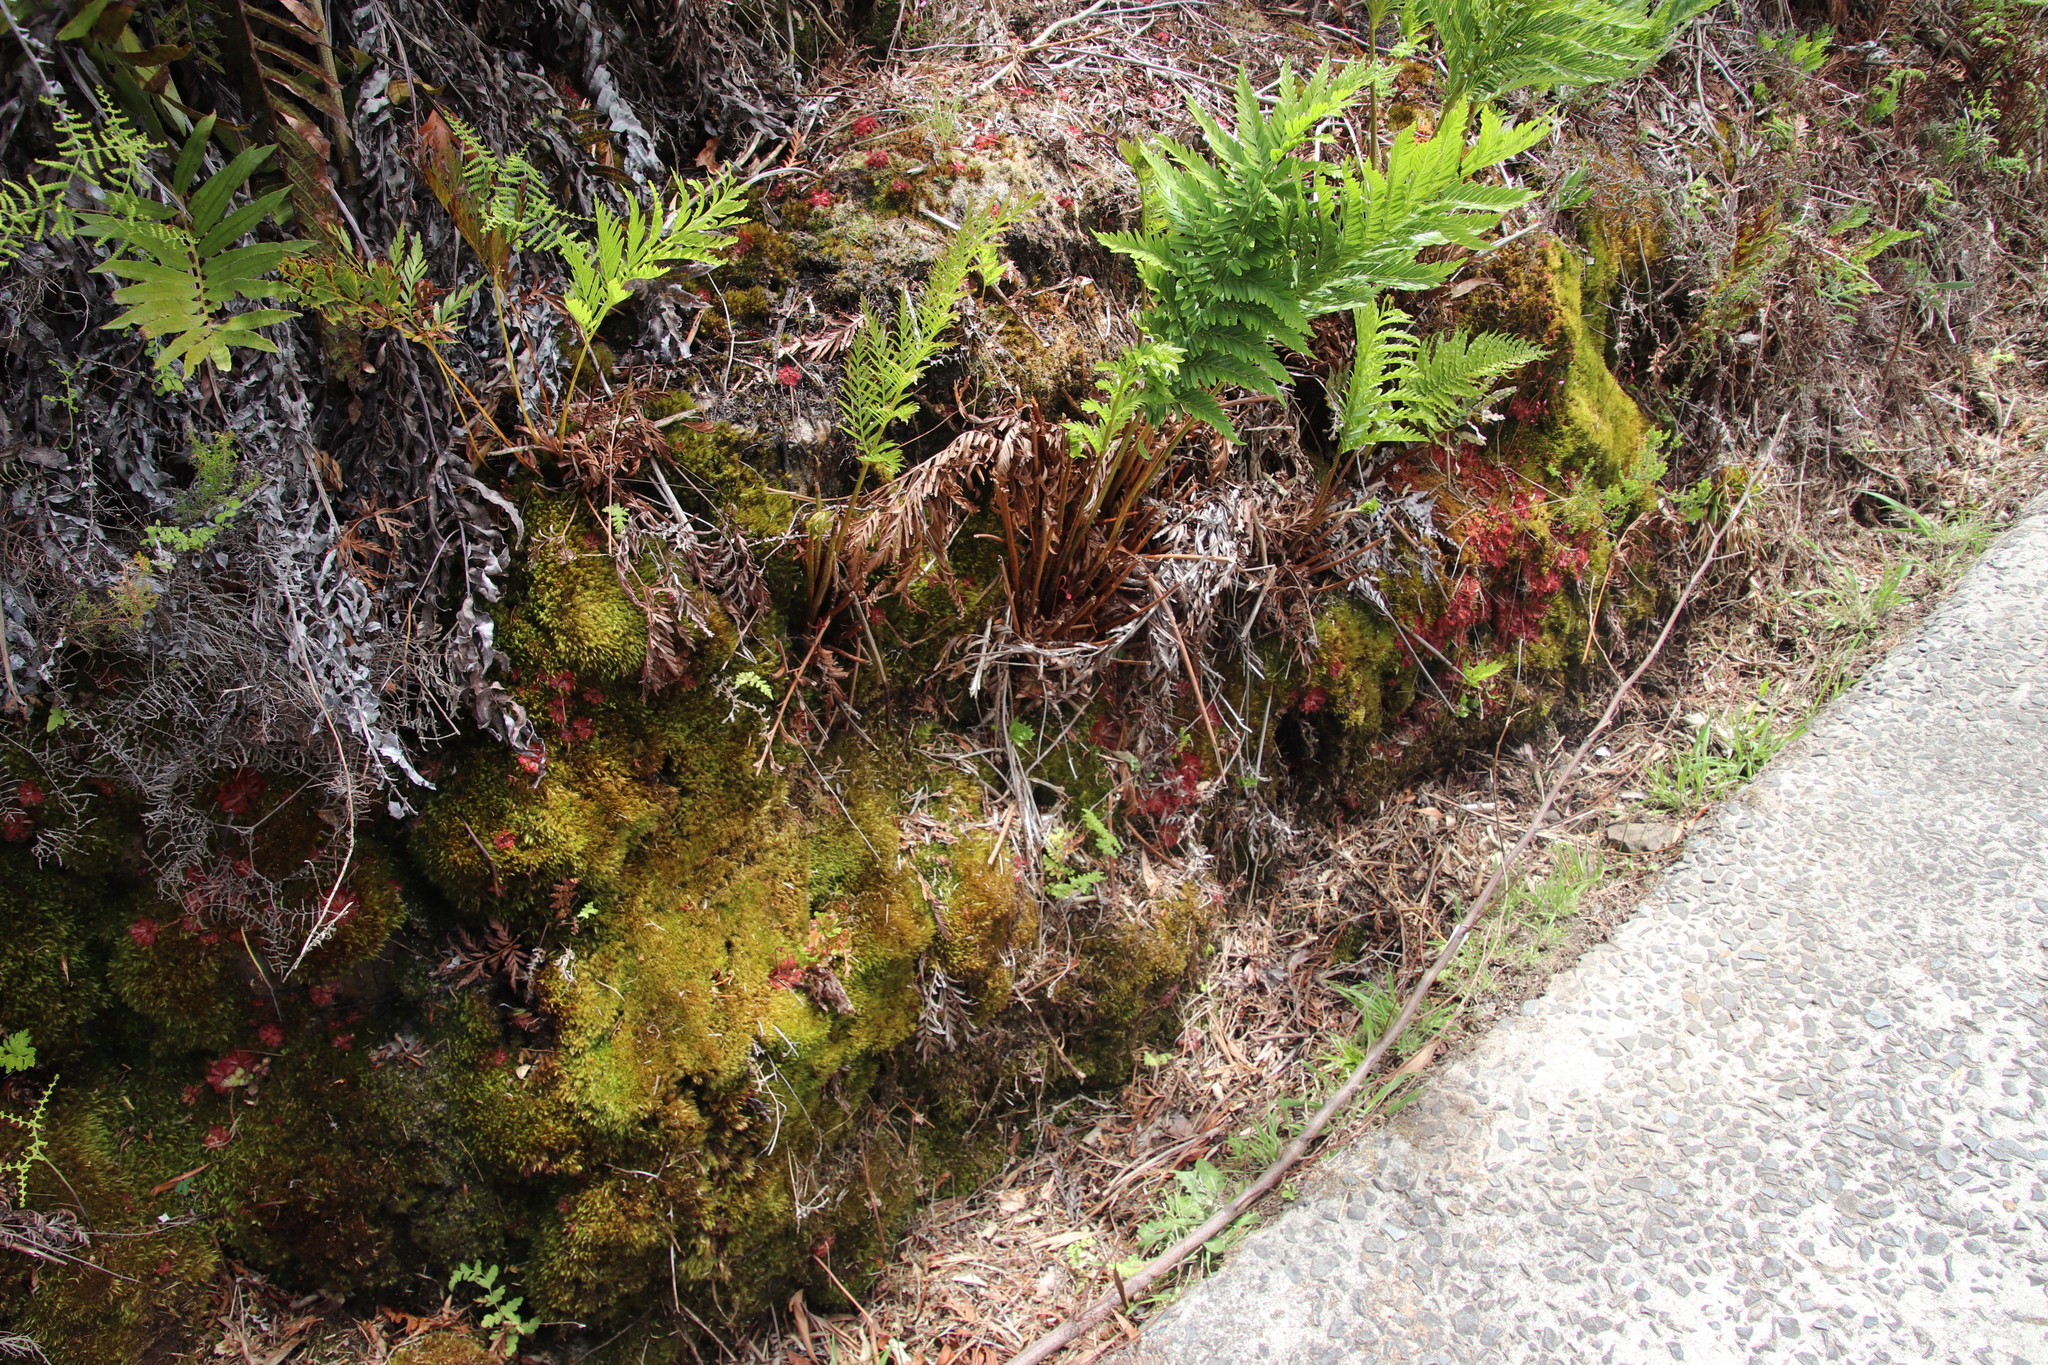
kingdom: Plantae
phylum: Tracheophyta
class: Polypodiopsida
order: Osmundales
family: Osmundaceae
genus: Todea
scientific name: Todea barbara
